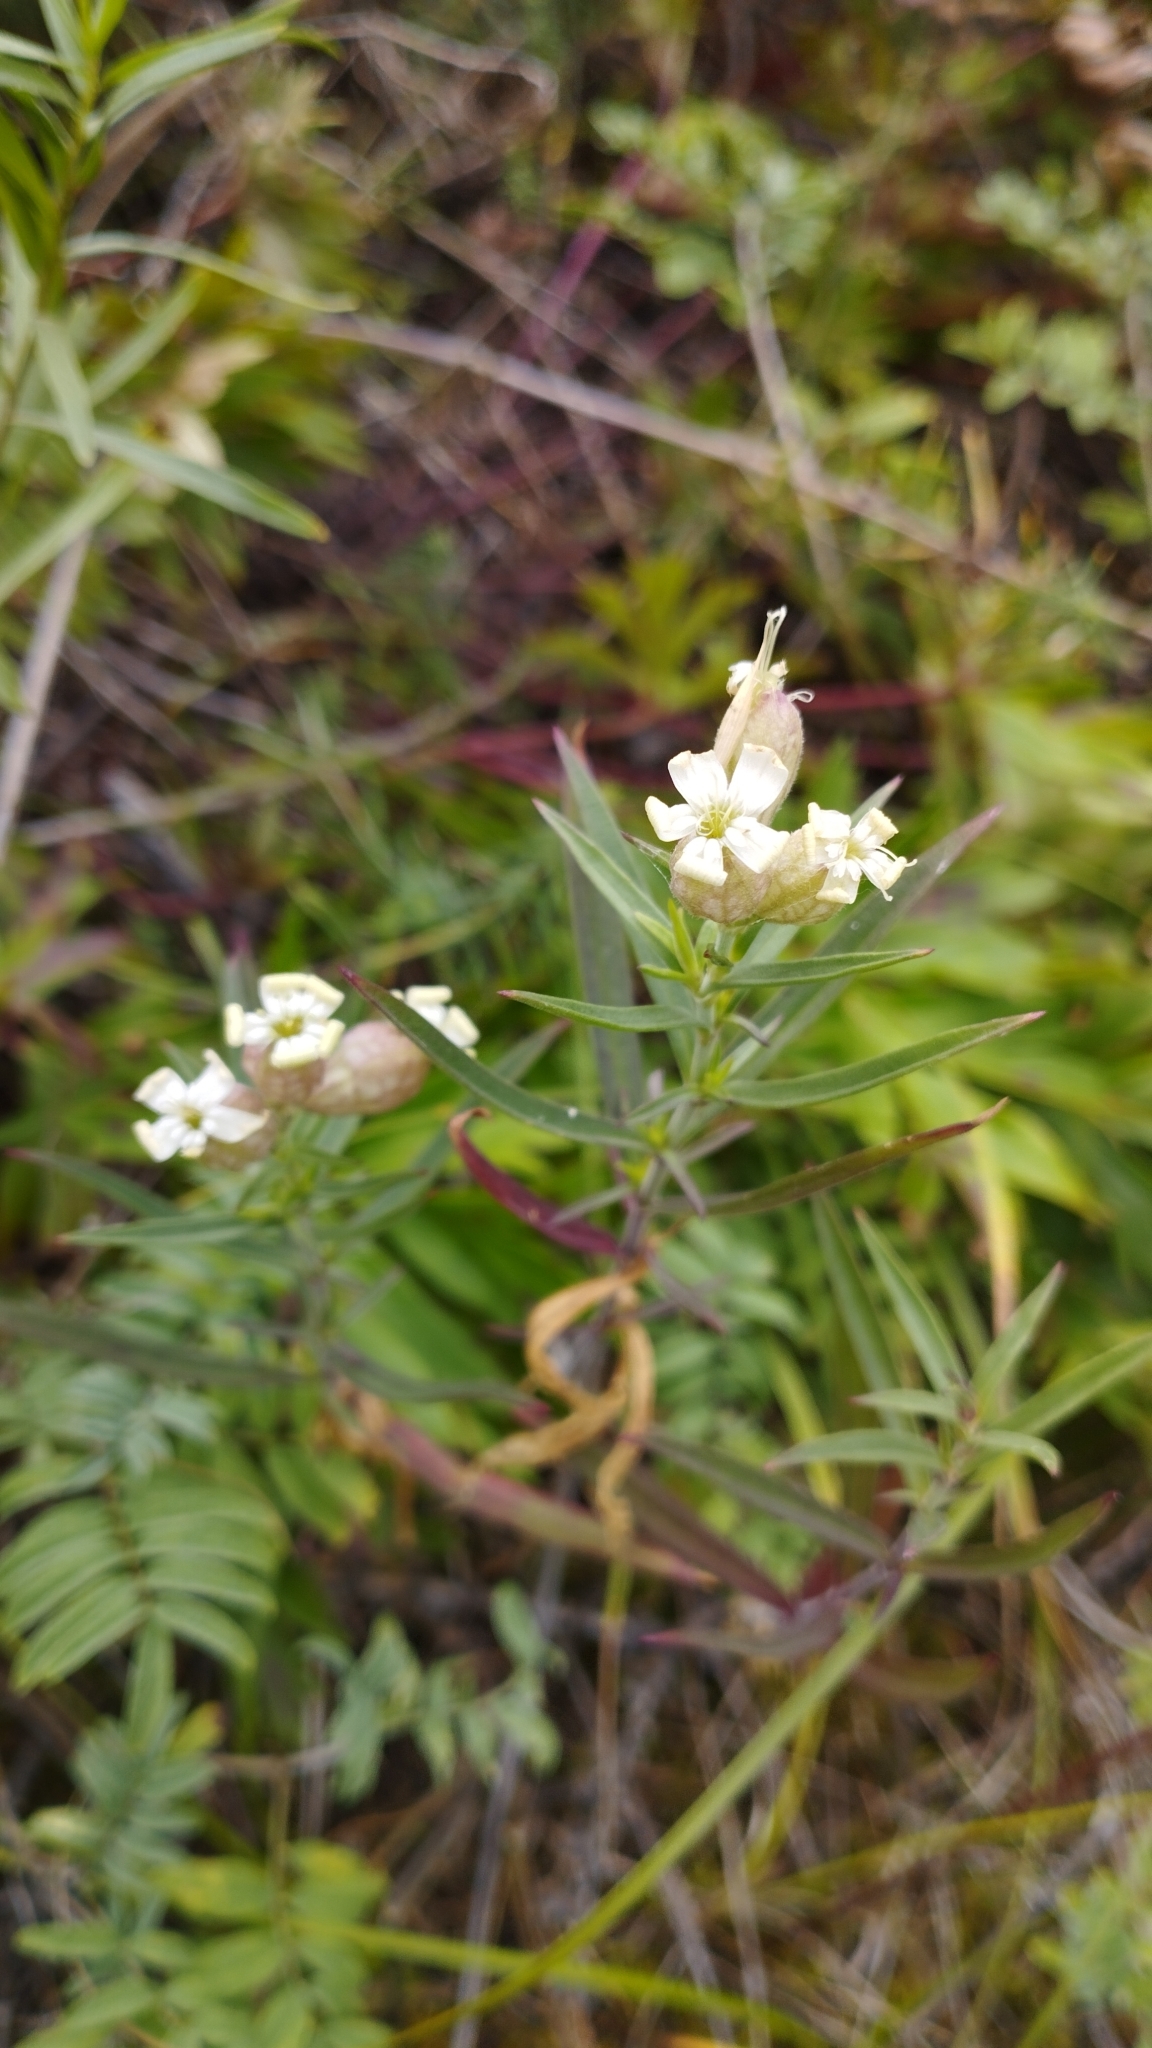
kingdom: Plantae
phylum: Tracheophyta
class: Magnoliopsida
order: Caryophyllales
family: Caryophyllaceae
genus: Silene
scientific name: Silene amoena
